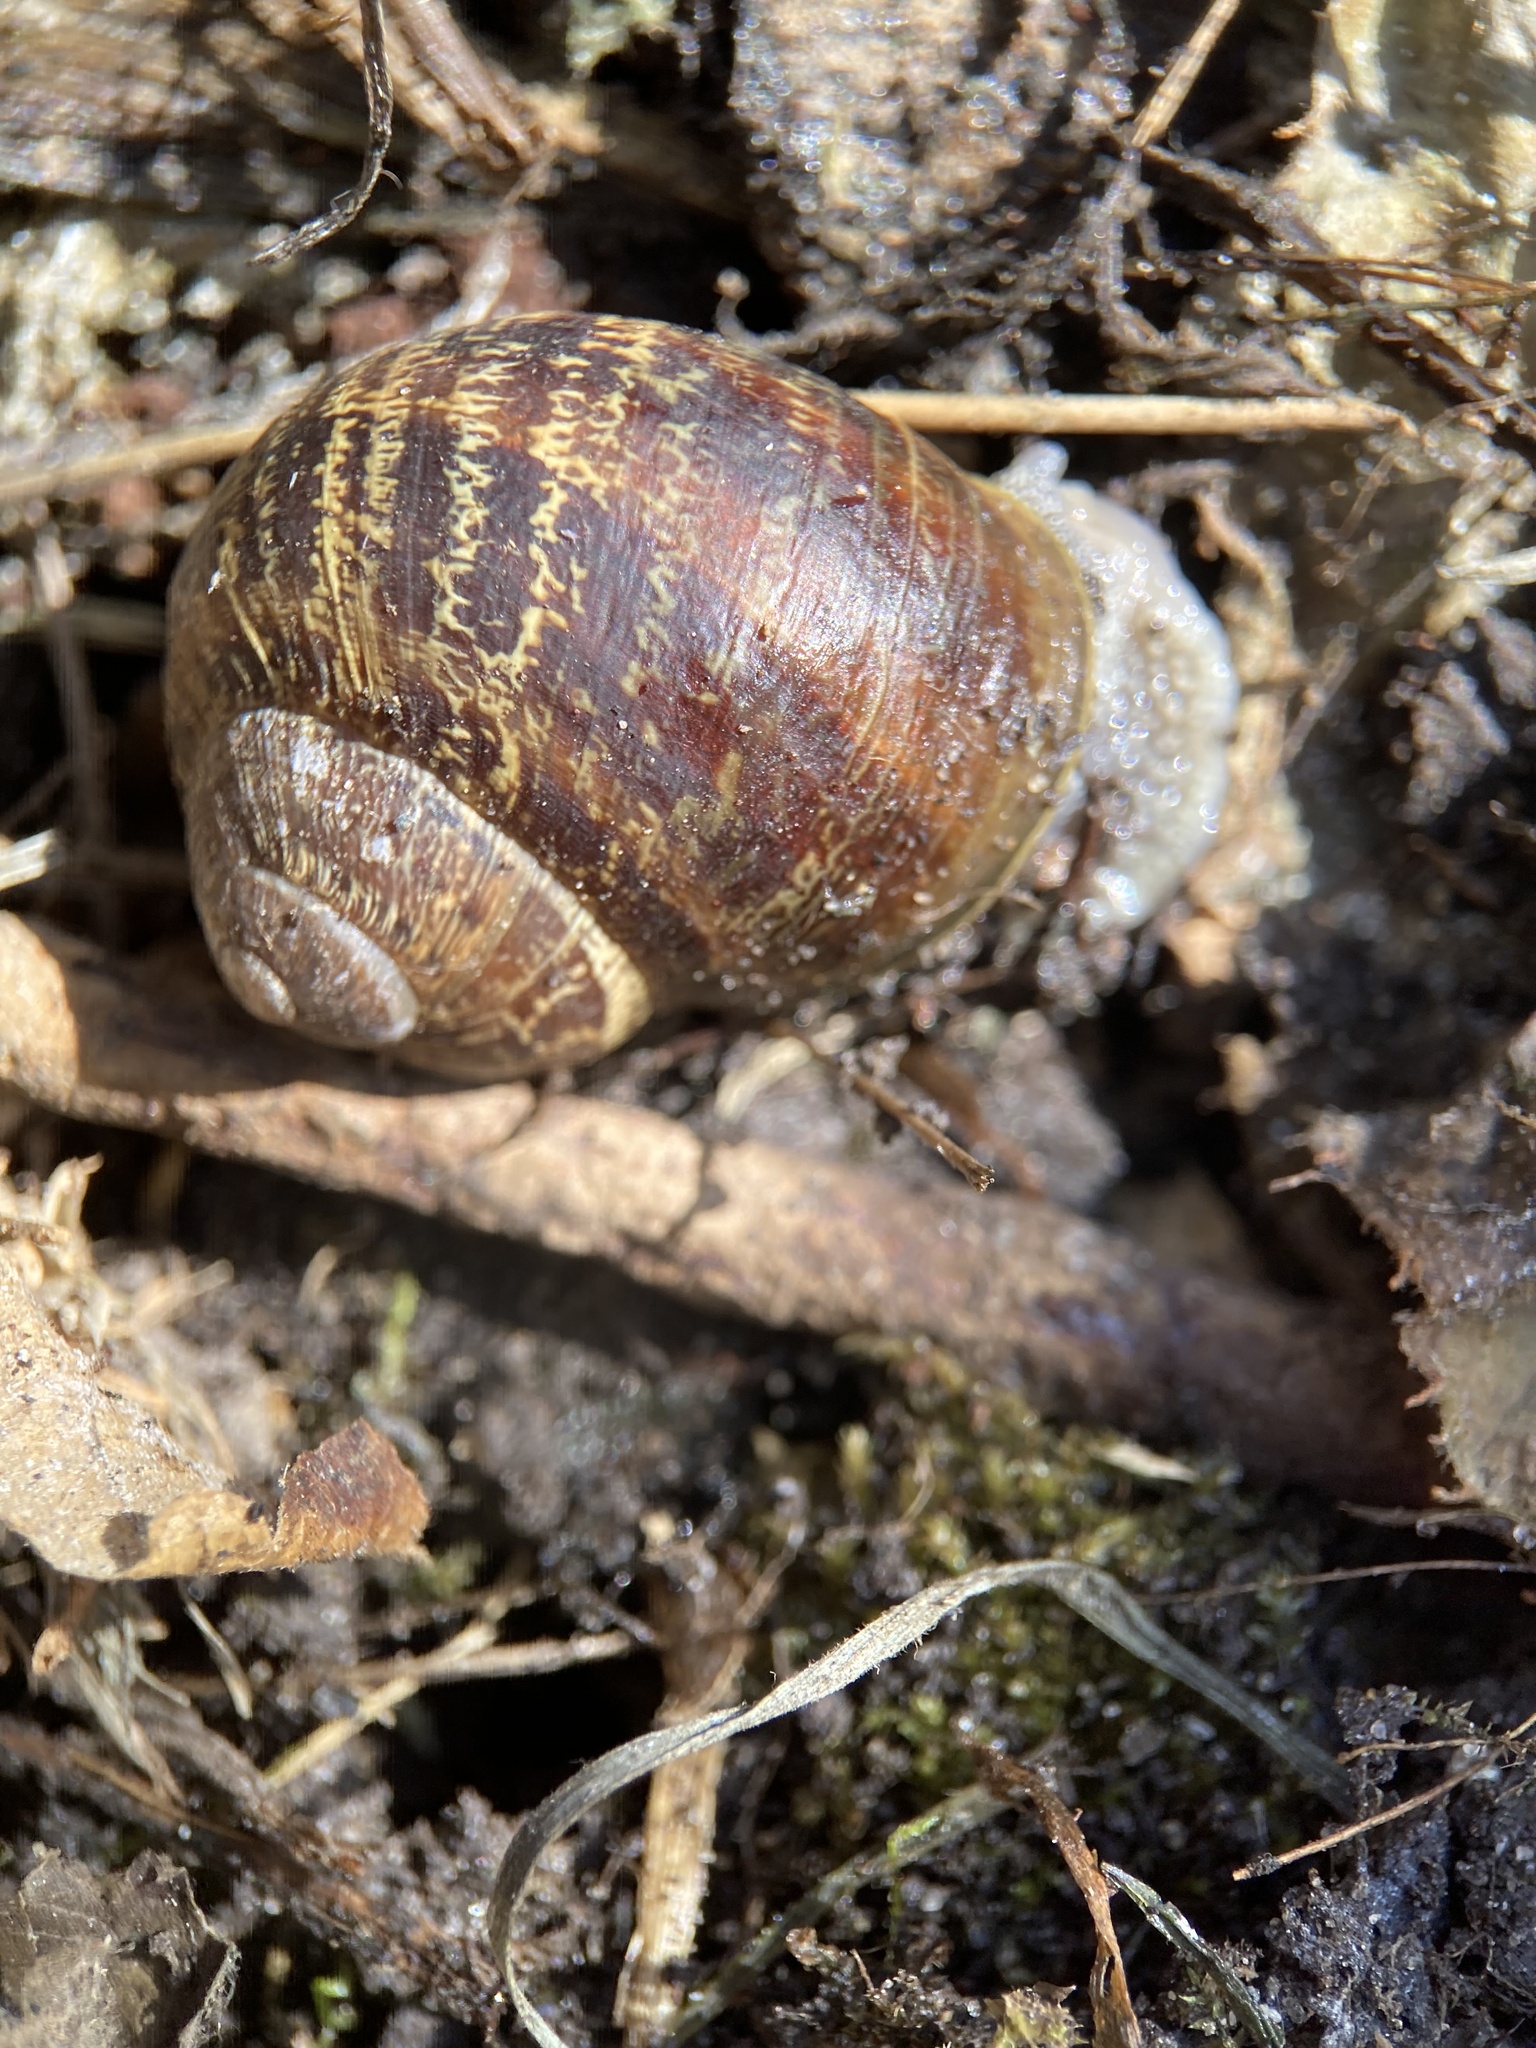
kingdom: Animalia
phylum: Mollusca
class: Gastropoda
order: Stylommatophora
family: Helicidae
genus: Cornu
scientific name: Cornu aspersum
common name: Brown garden snail
